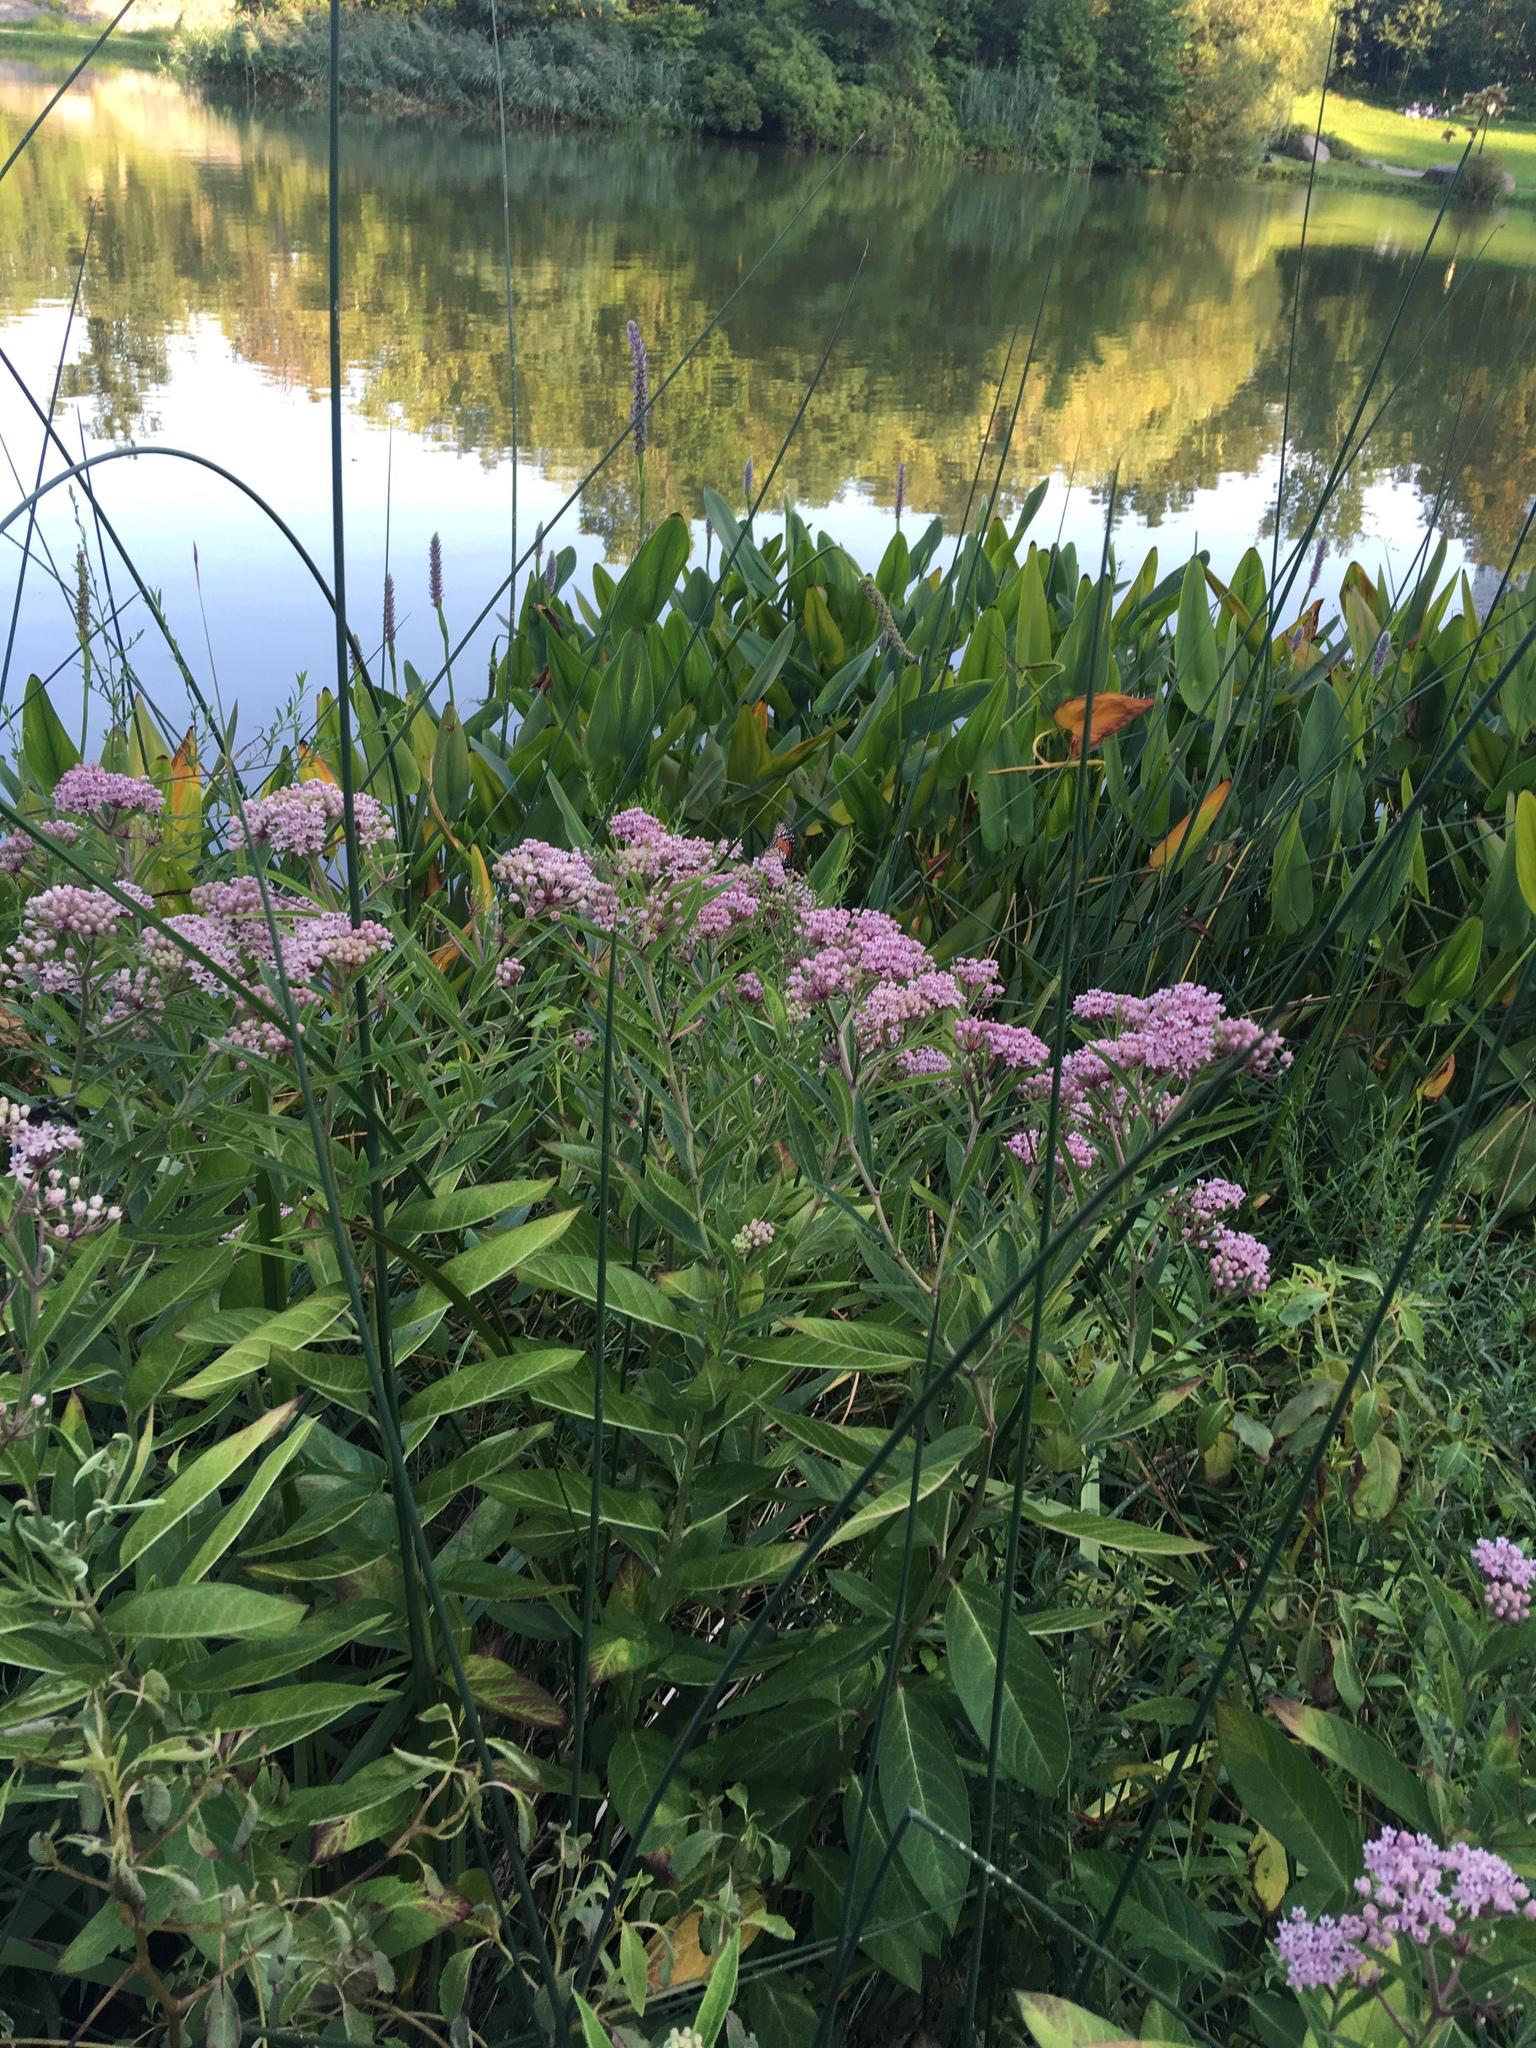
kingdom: Plantae
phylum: Tracheophyta
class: Magnoliopsida
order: Gentianales
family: Apocynaceae
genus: Asclepias
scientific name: Asclepias incarnata
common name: Swamp milkweed
